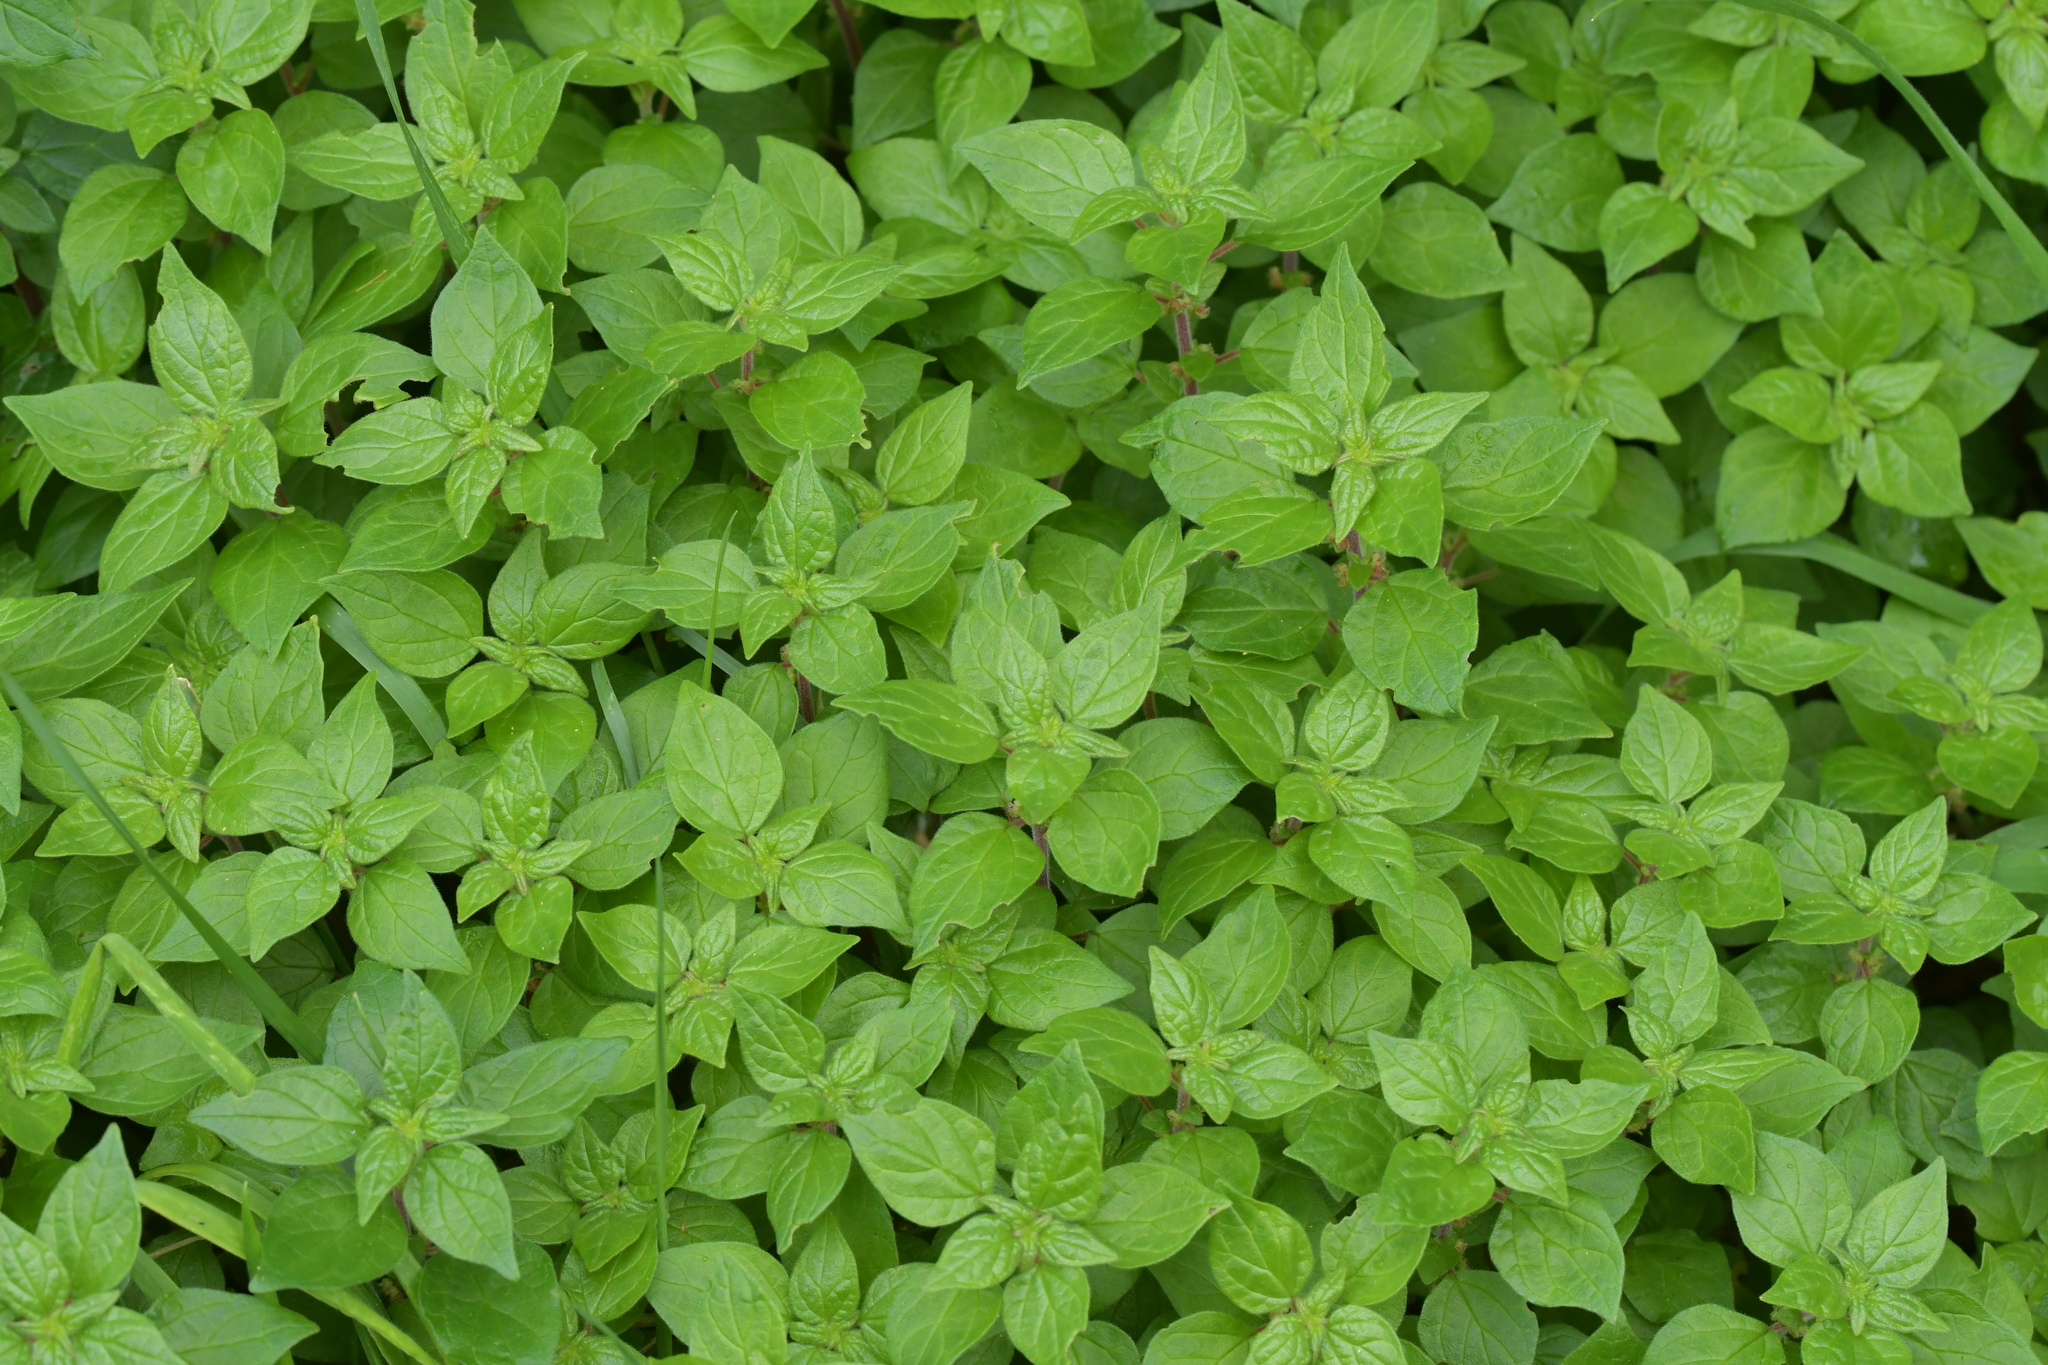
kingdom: Plantae
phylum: Tracheophyta
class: Magnoliopsida
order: Rosales
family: Urticaceae
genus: Parietaria
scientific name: Parietaria judaica
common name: Pellitory-of-the-wall
